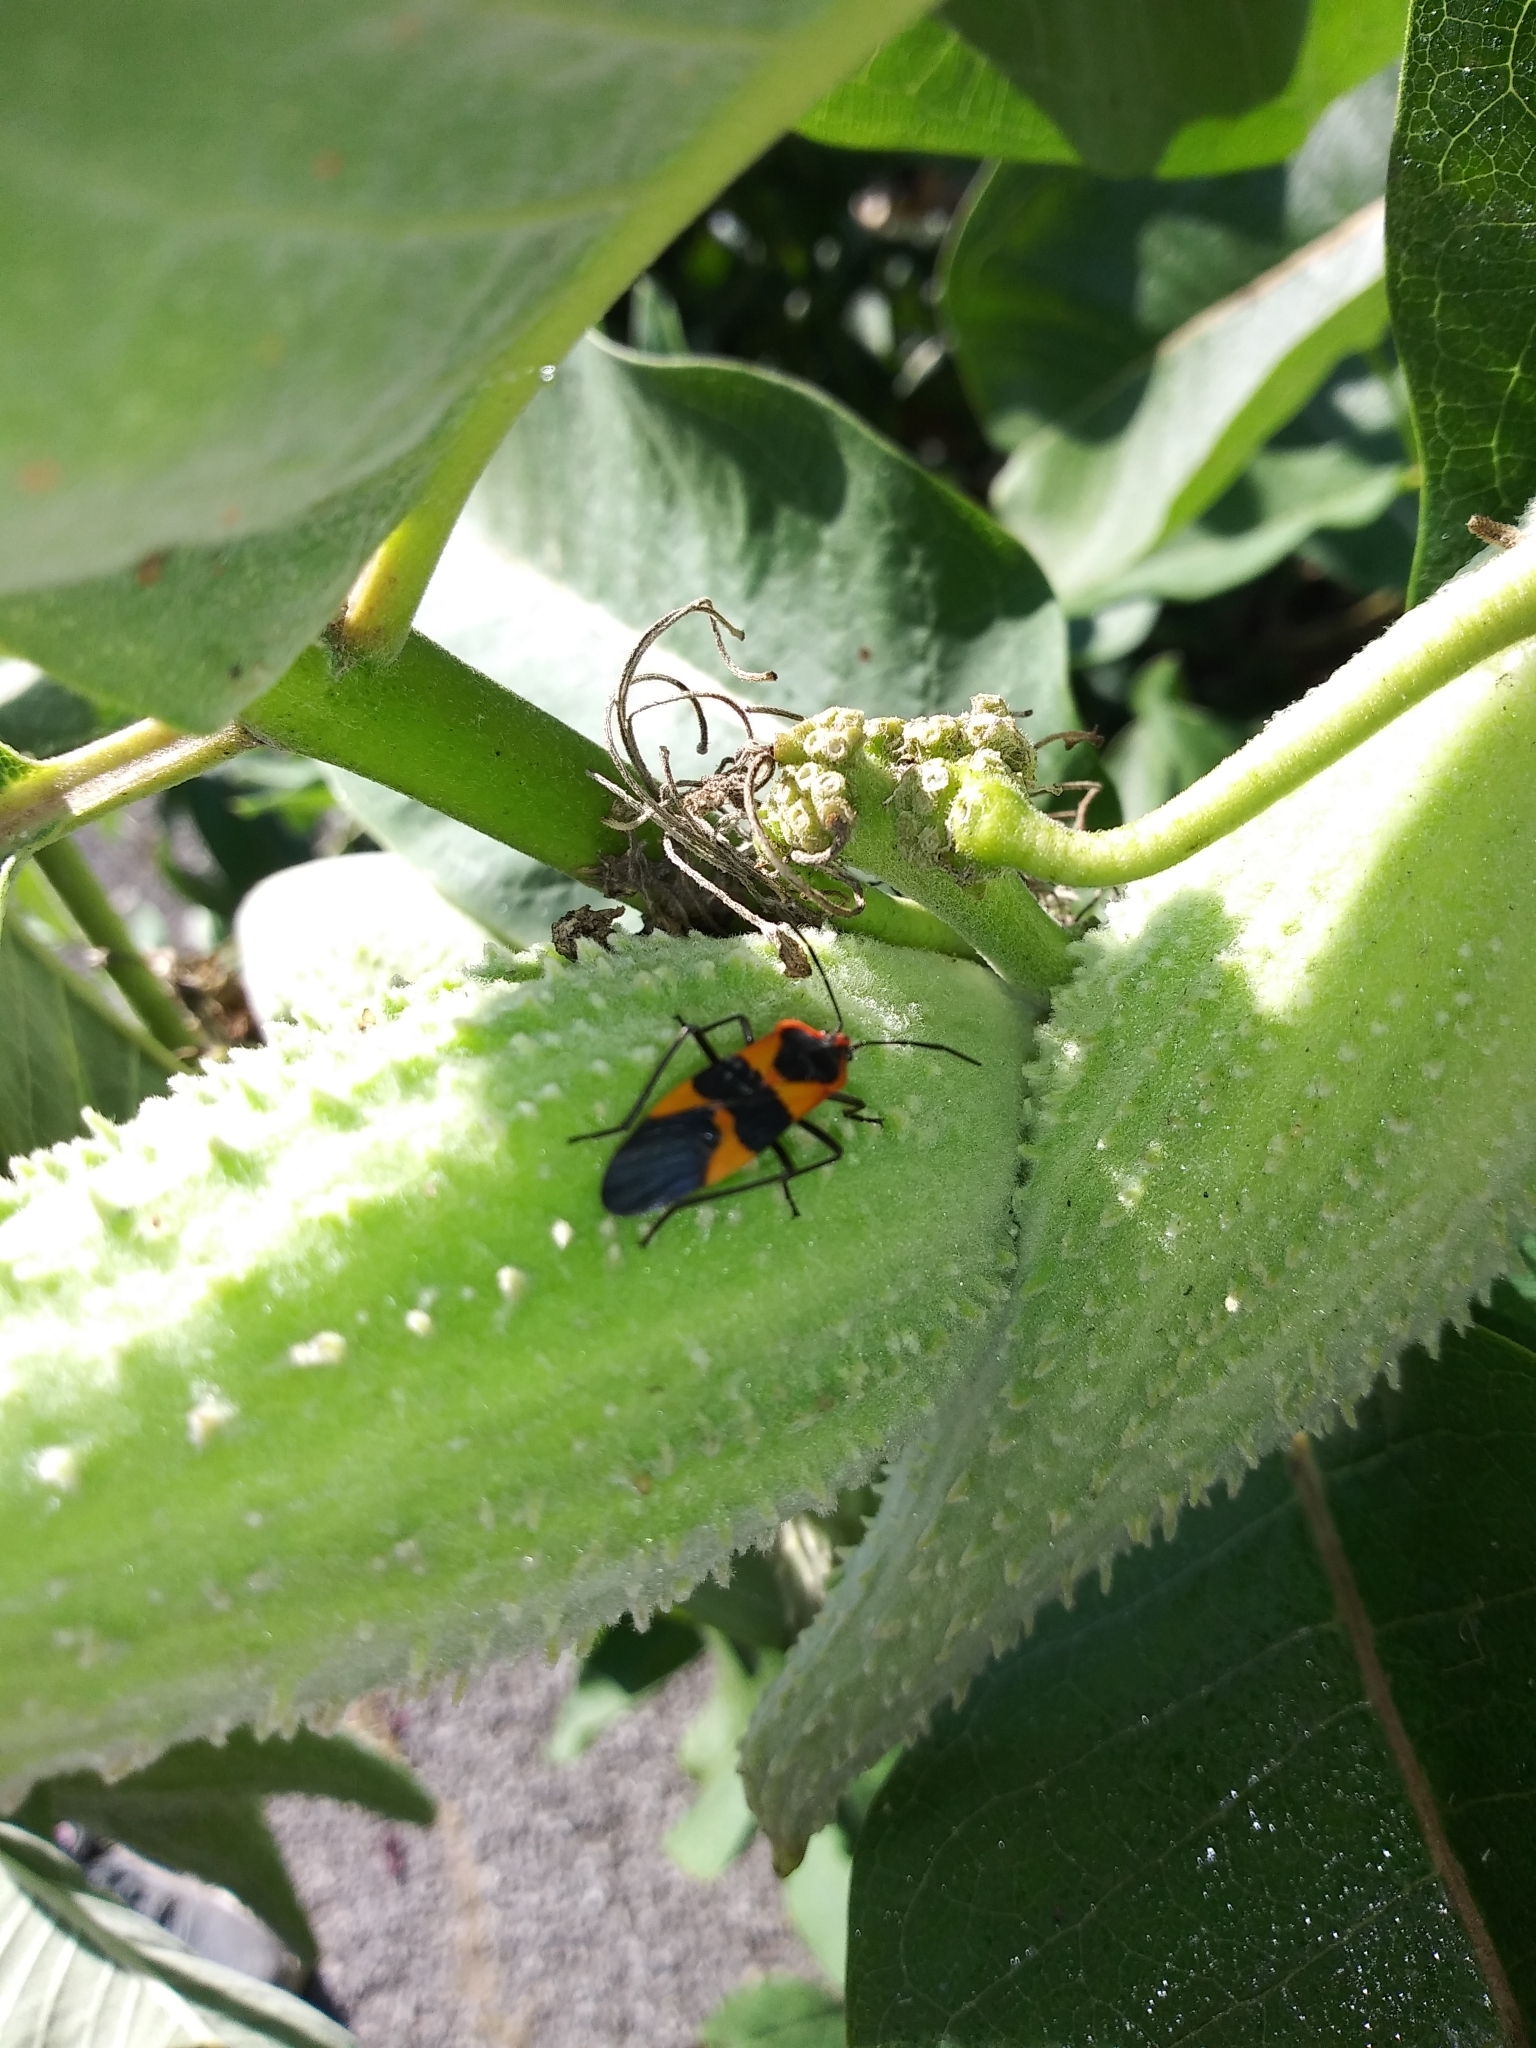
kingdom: Animalia
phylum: Arthropoda
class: Insecta
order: Hemiptera
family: Lygaeidae
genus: Oncopeltus
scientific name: Oncopeltus fasciatus
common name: Large milkweed bug
